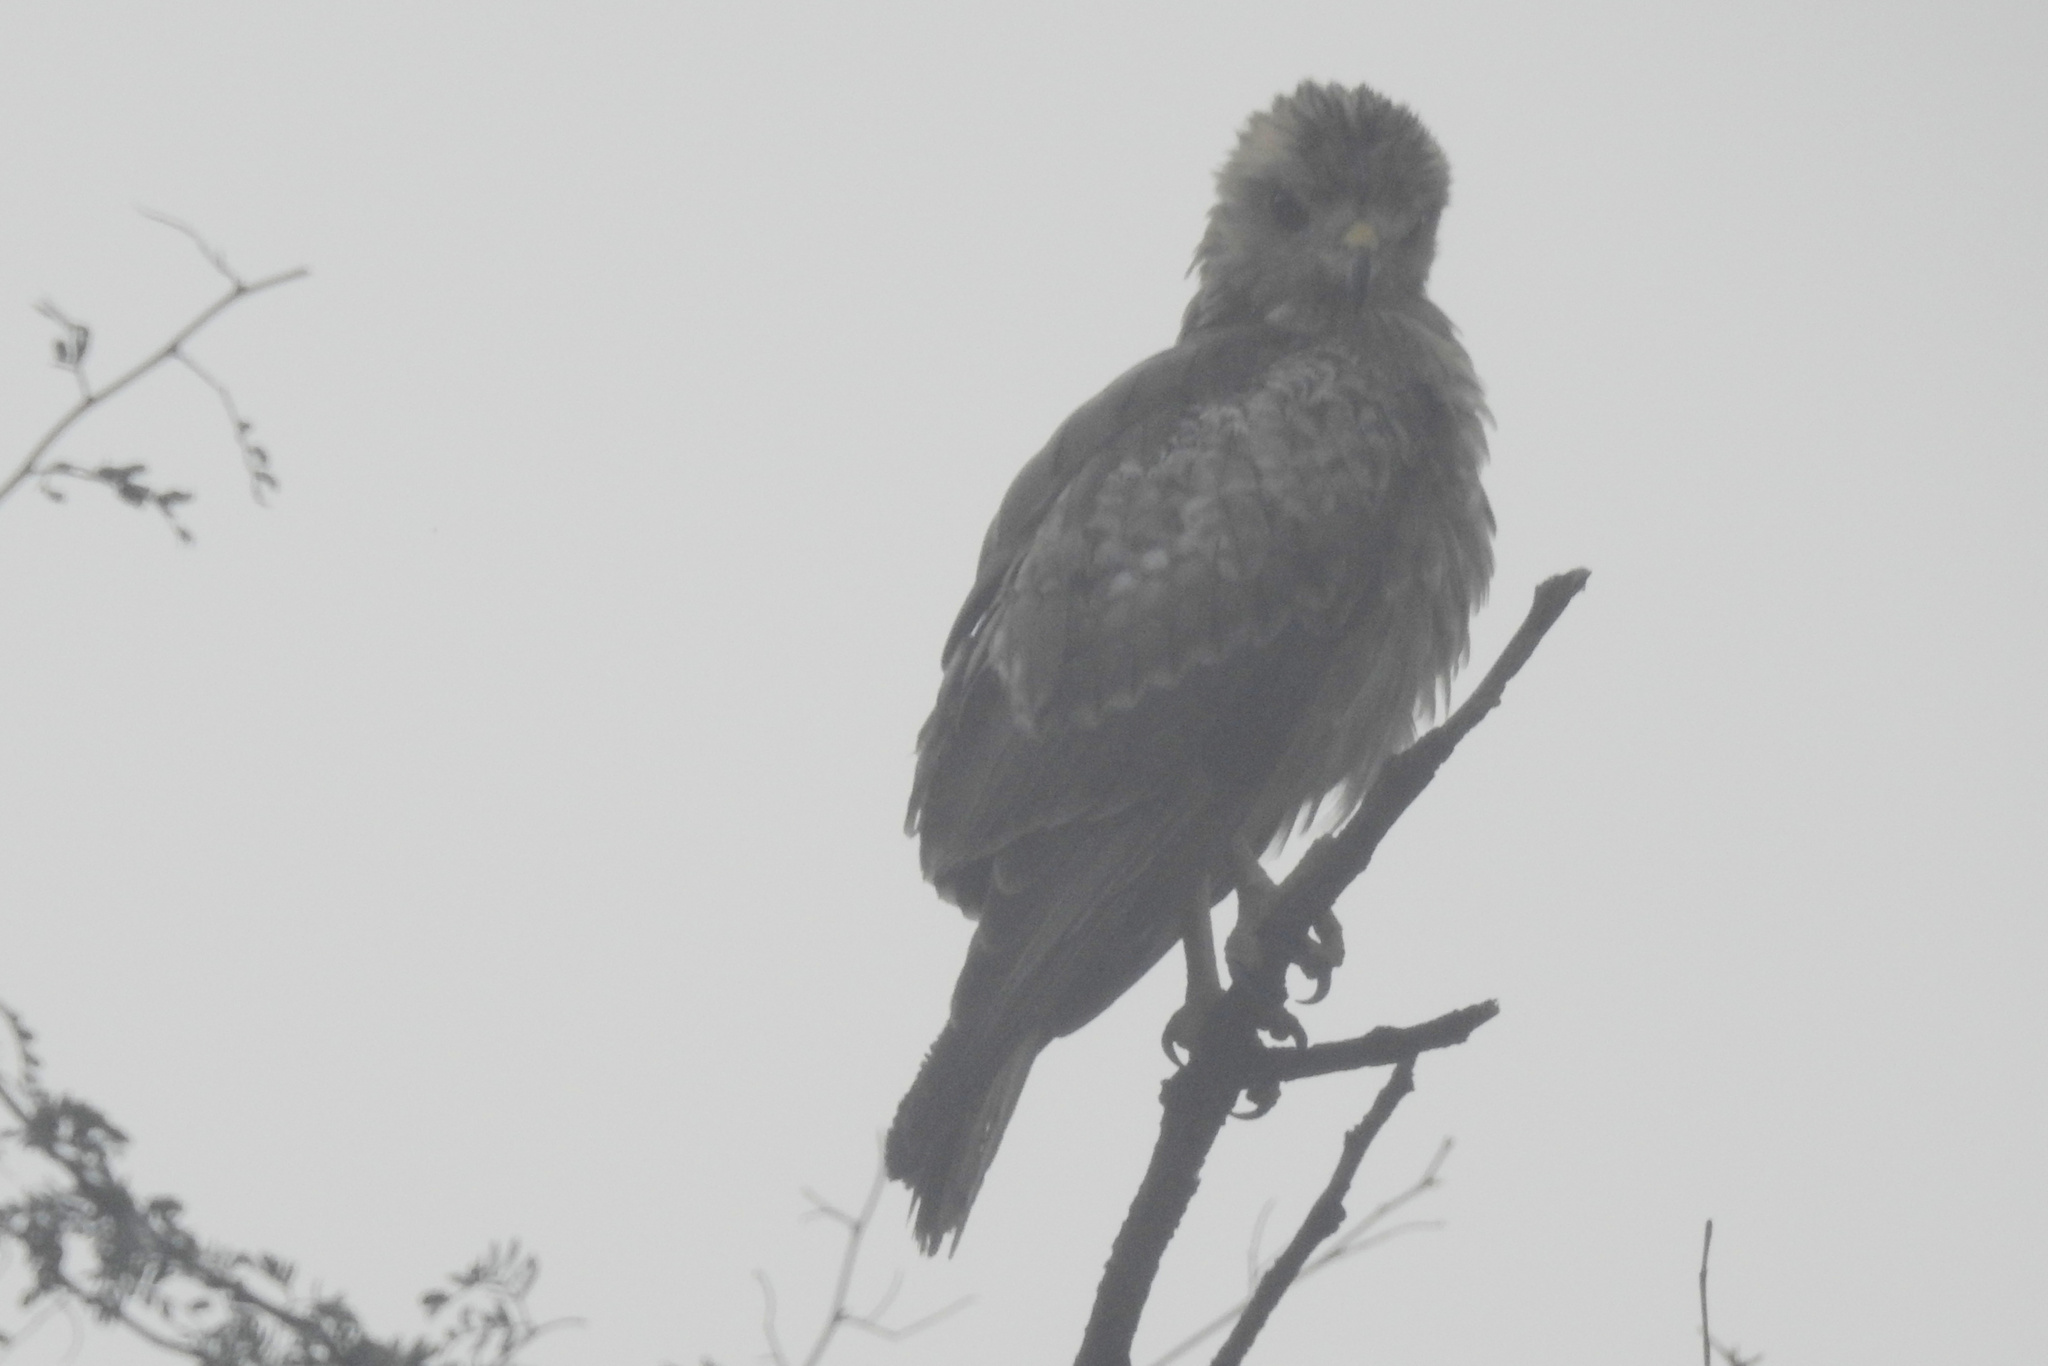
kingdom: Animalia
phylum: Chordata
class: Aves
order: Accipitriformes
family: Accipitridae
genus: Butastur
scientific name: Butastur teesa
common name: White-eyed buzzard
